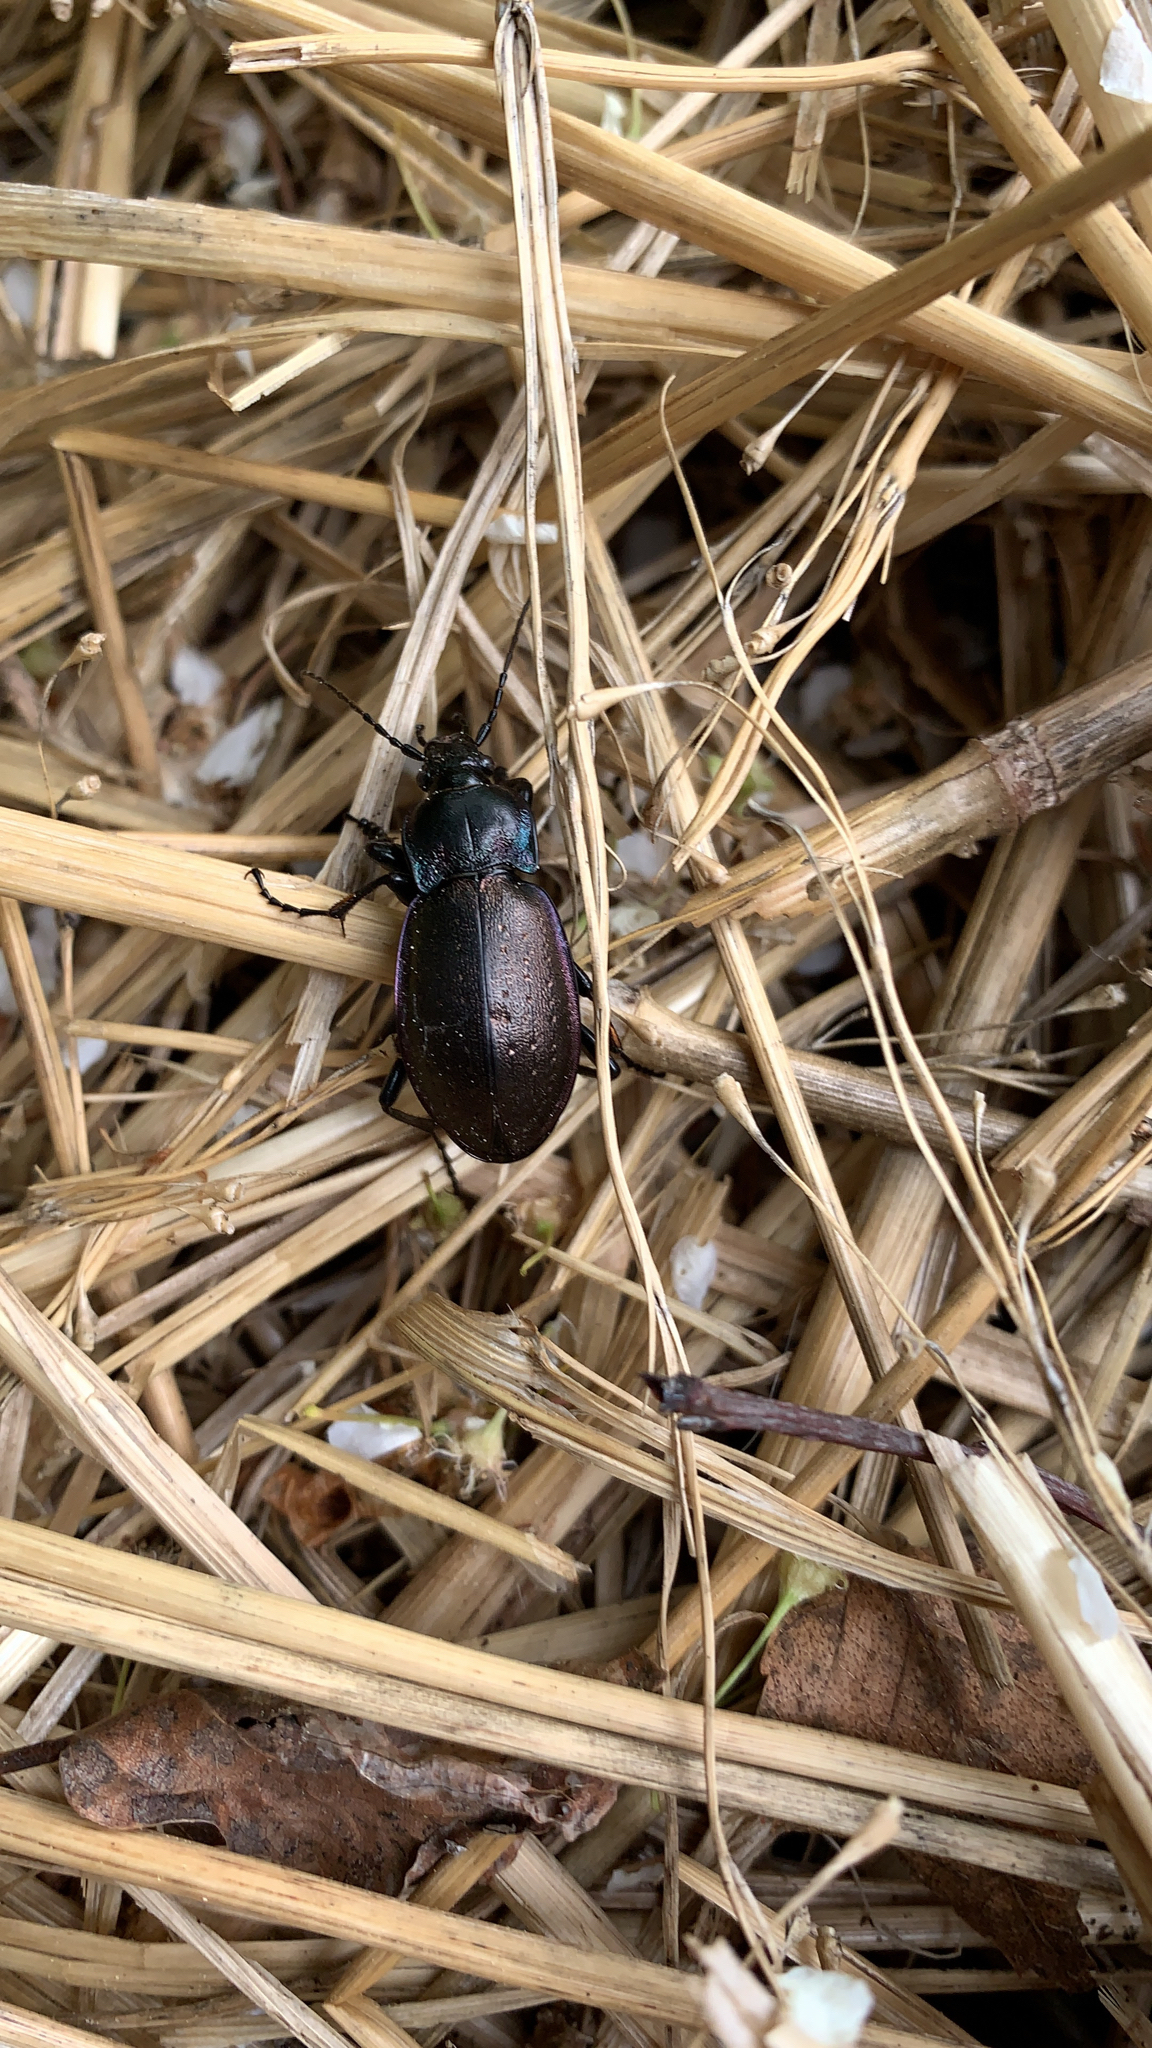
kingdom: Animalia
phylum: Arthropoda
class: Insecta
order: Coleoptera
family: Carabidae
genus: Carabus
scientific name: Carabus nemoralis
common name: European ground beetle
